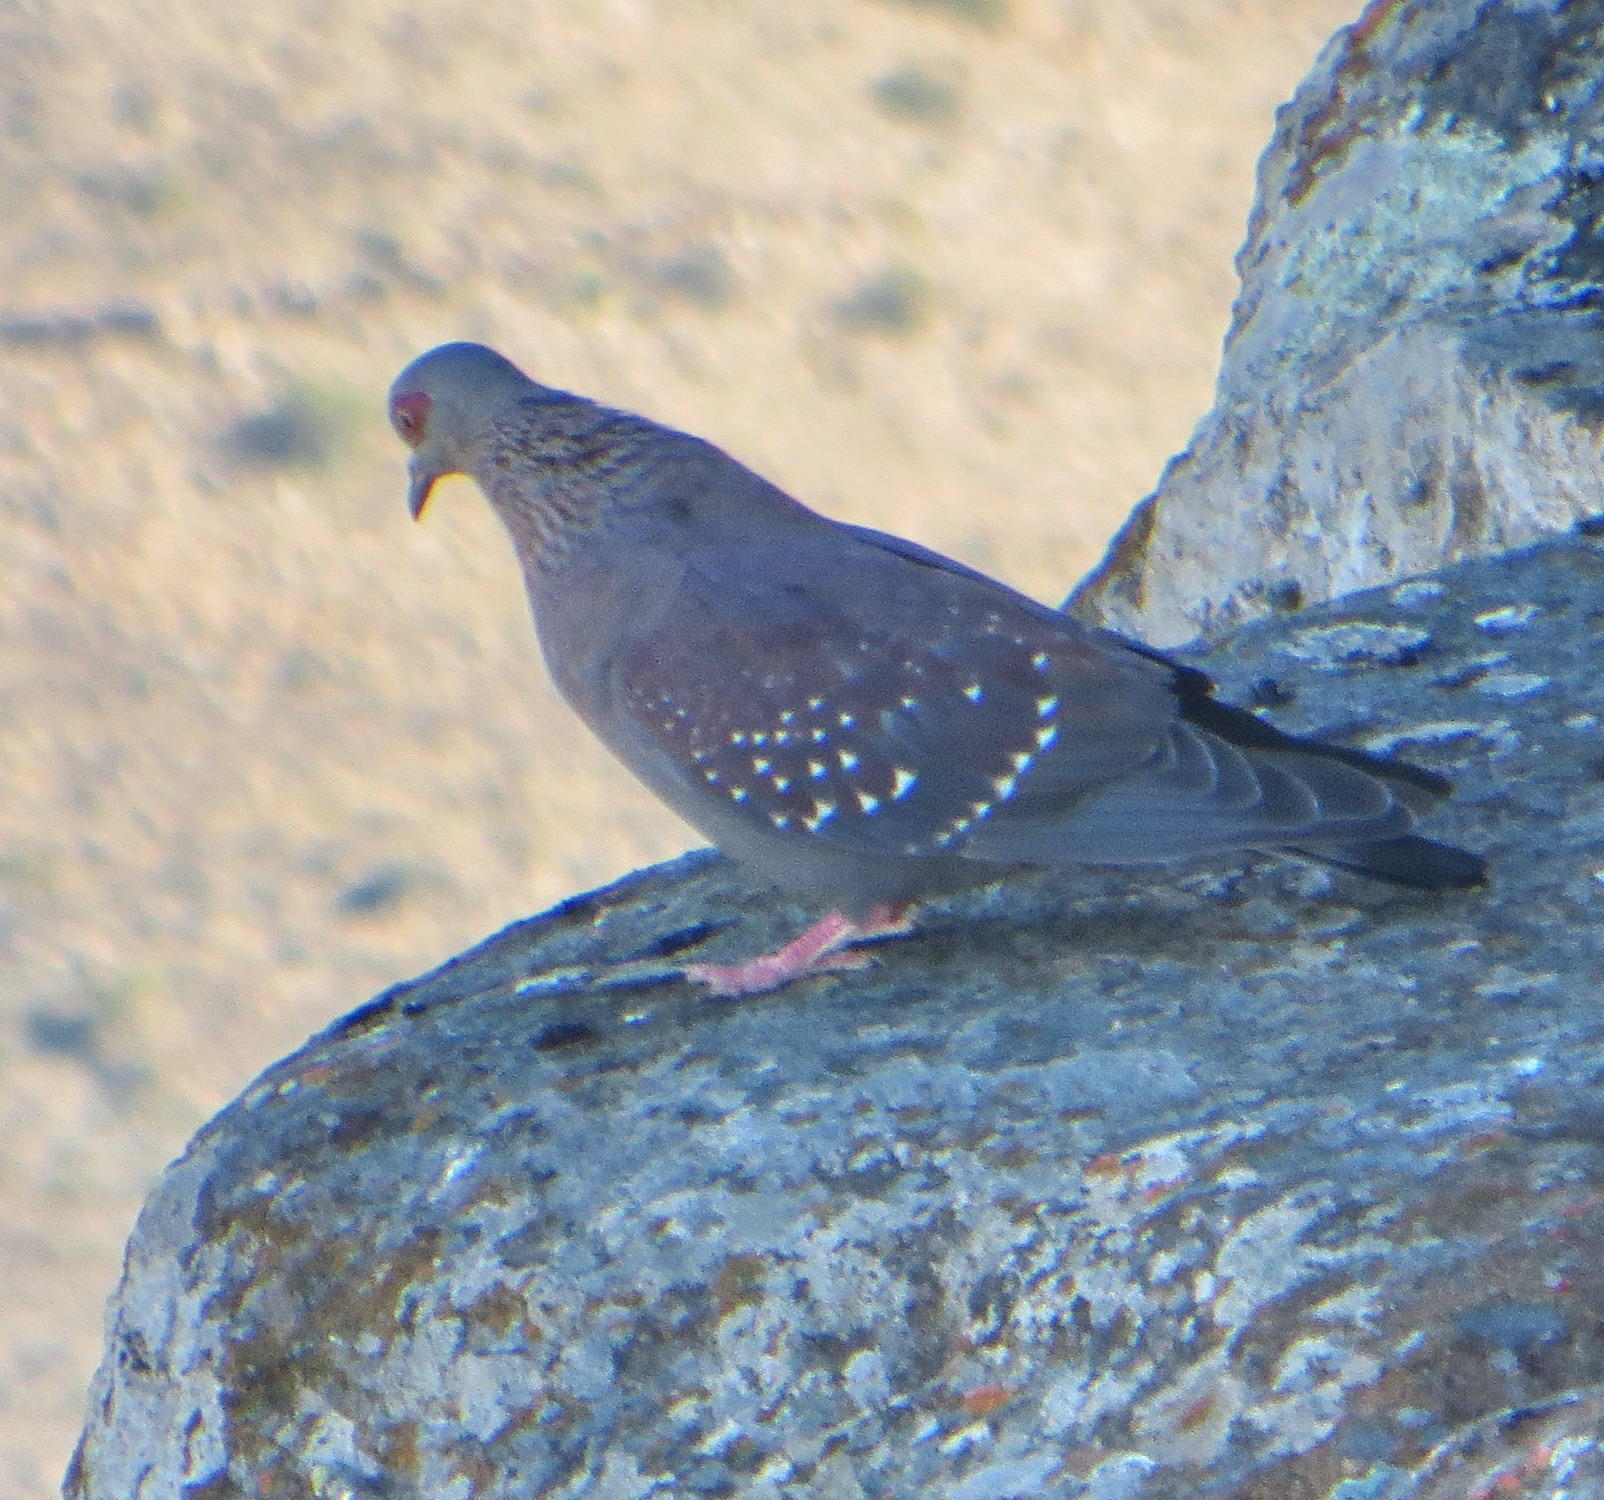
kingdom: Animalia
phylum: Chordata
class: Aves
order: Columbiformes
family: Columbidae
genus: Columba
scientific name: Columba guinea
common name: Speckled pigeon
